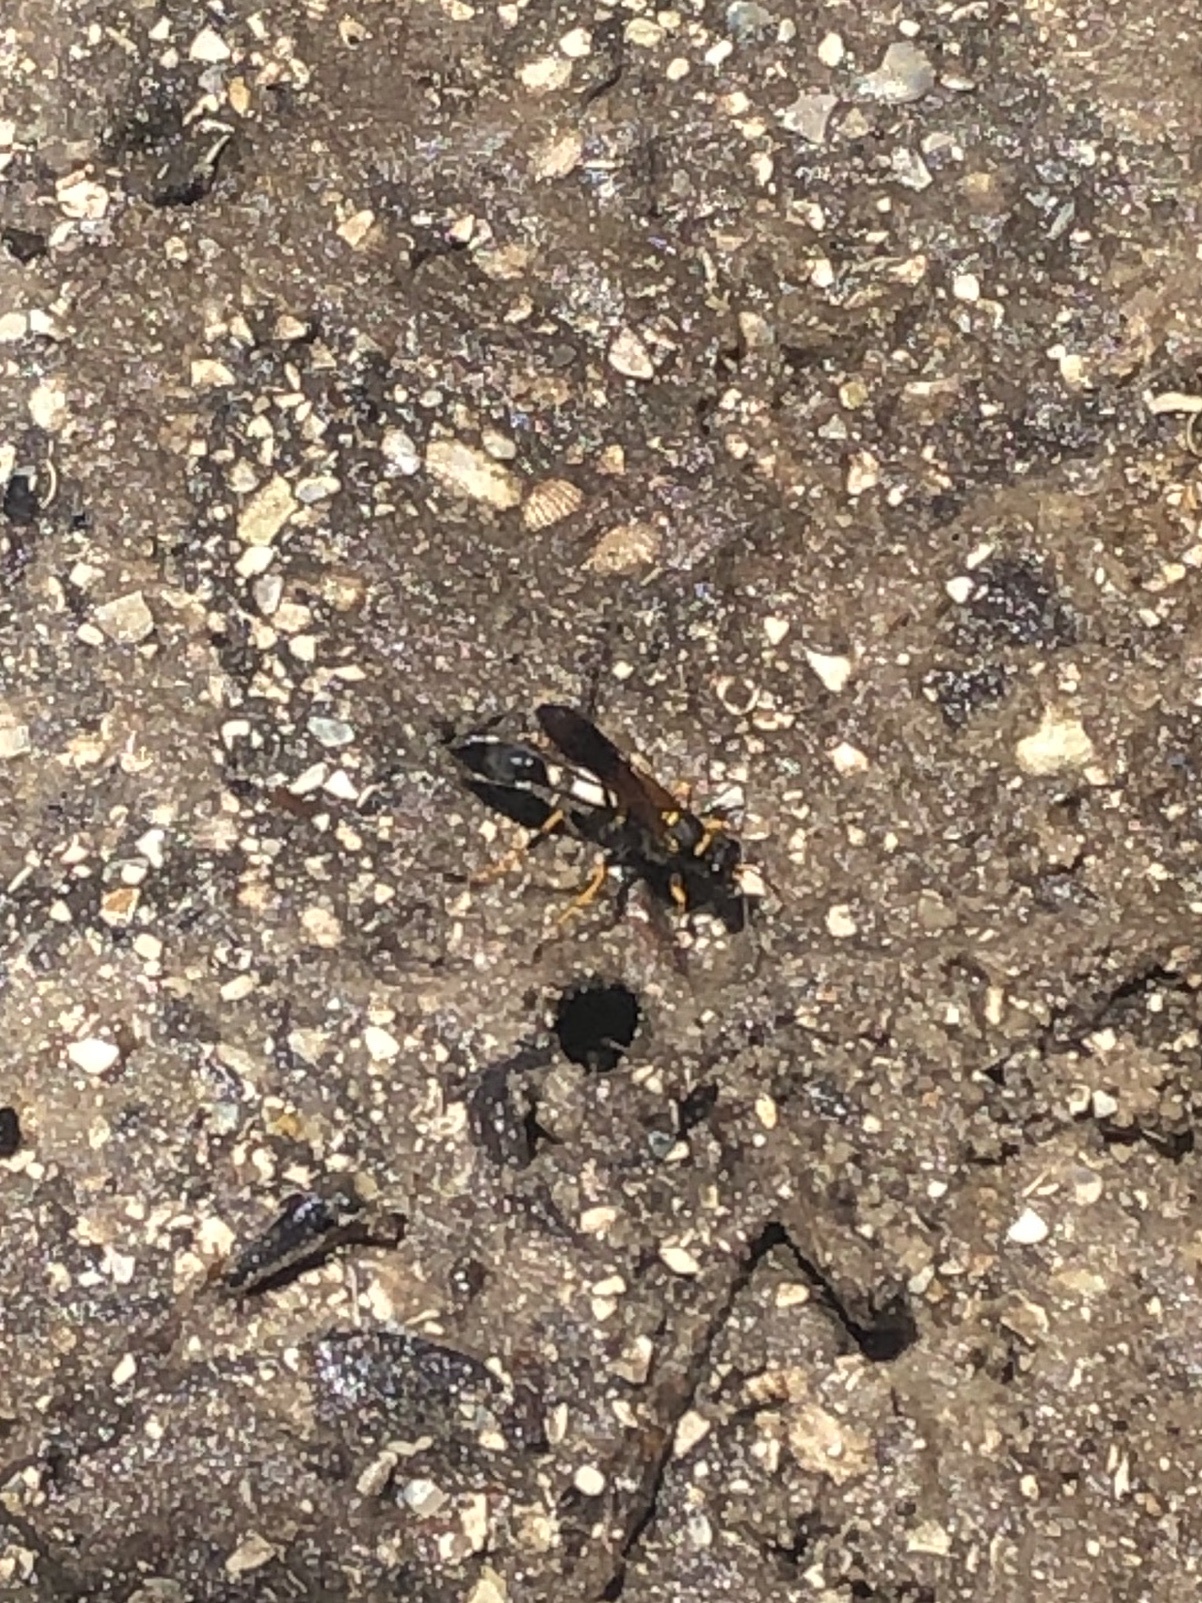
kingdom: Animalia
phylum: Arthropoda
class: Insecta
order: Hymenoptera
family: Sphecidae
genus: Sceliphron
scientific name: Sceliphron caementarium
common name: Mud dauber
